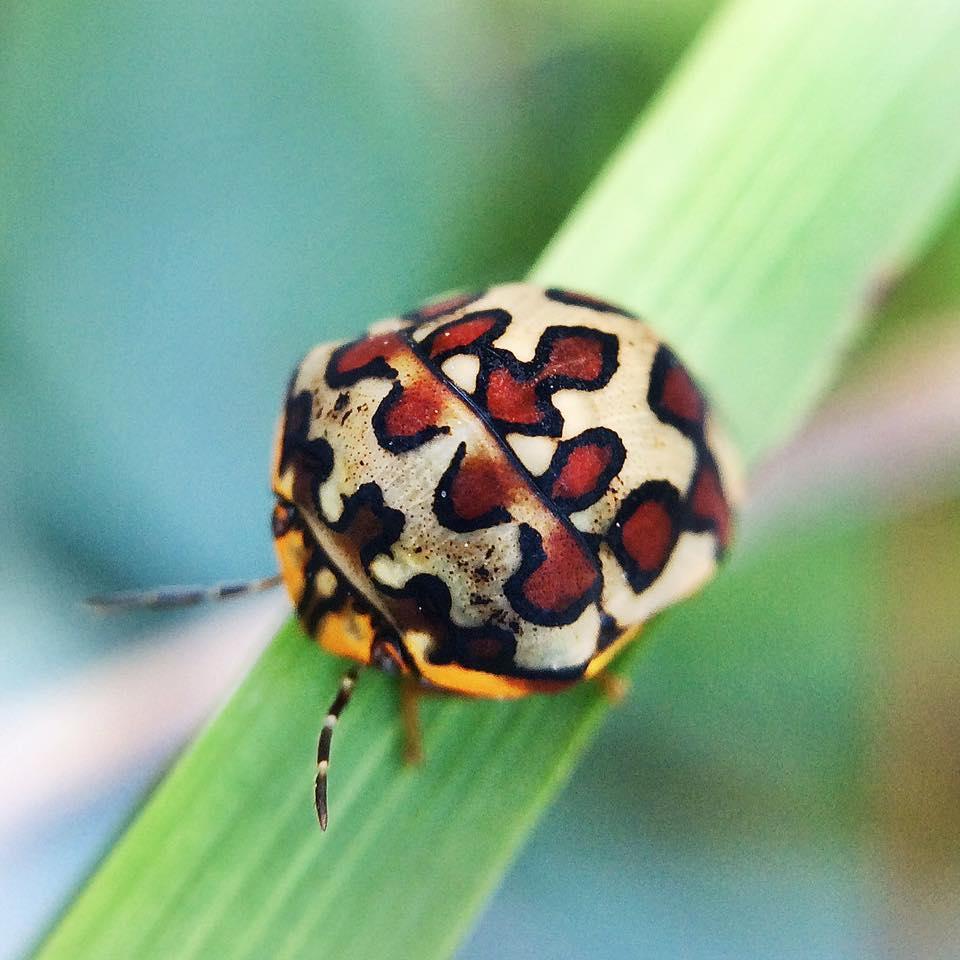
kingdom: Animalia
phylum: Arthropoda
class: Insecta
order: Hemiptera
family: Scutelleridae
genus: Sphaerocoris
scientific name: Sphaerocoris
